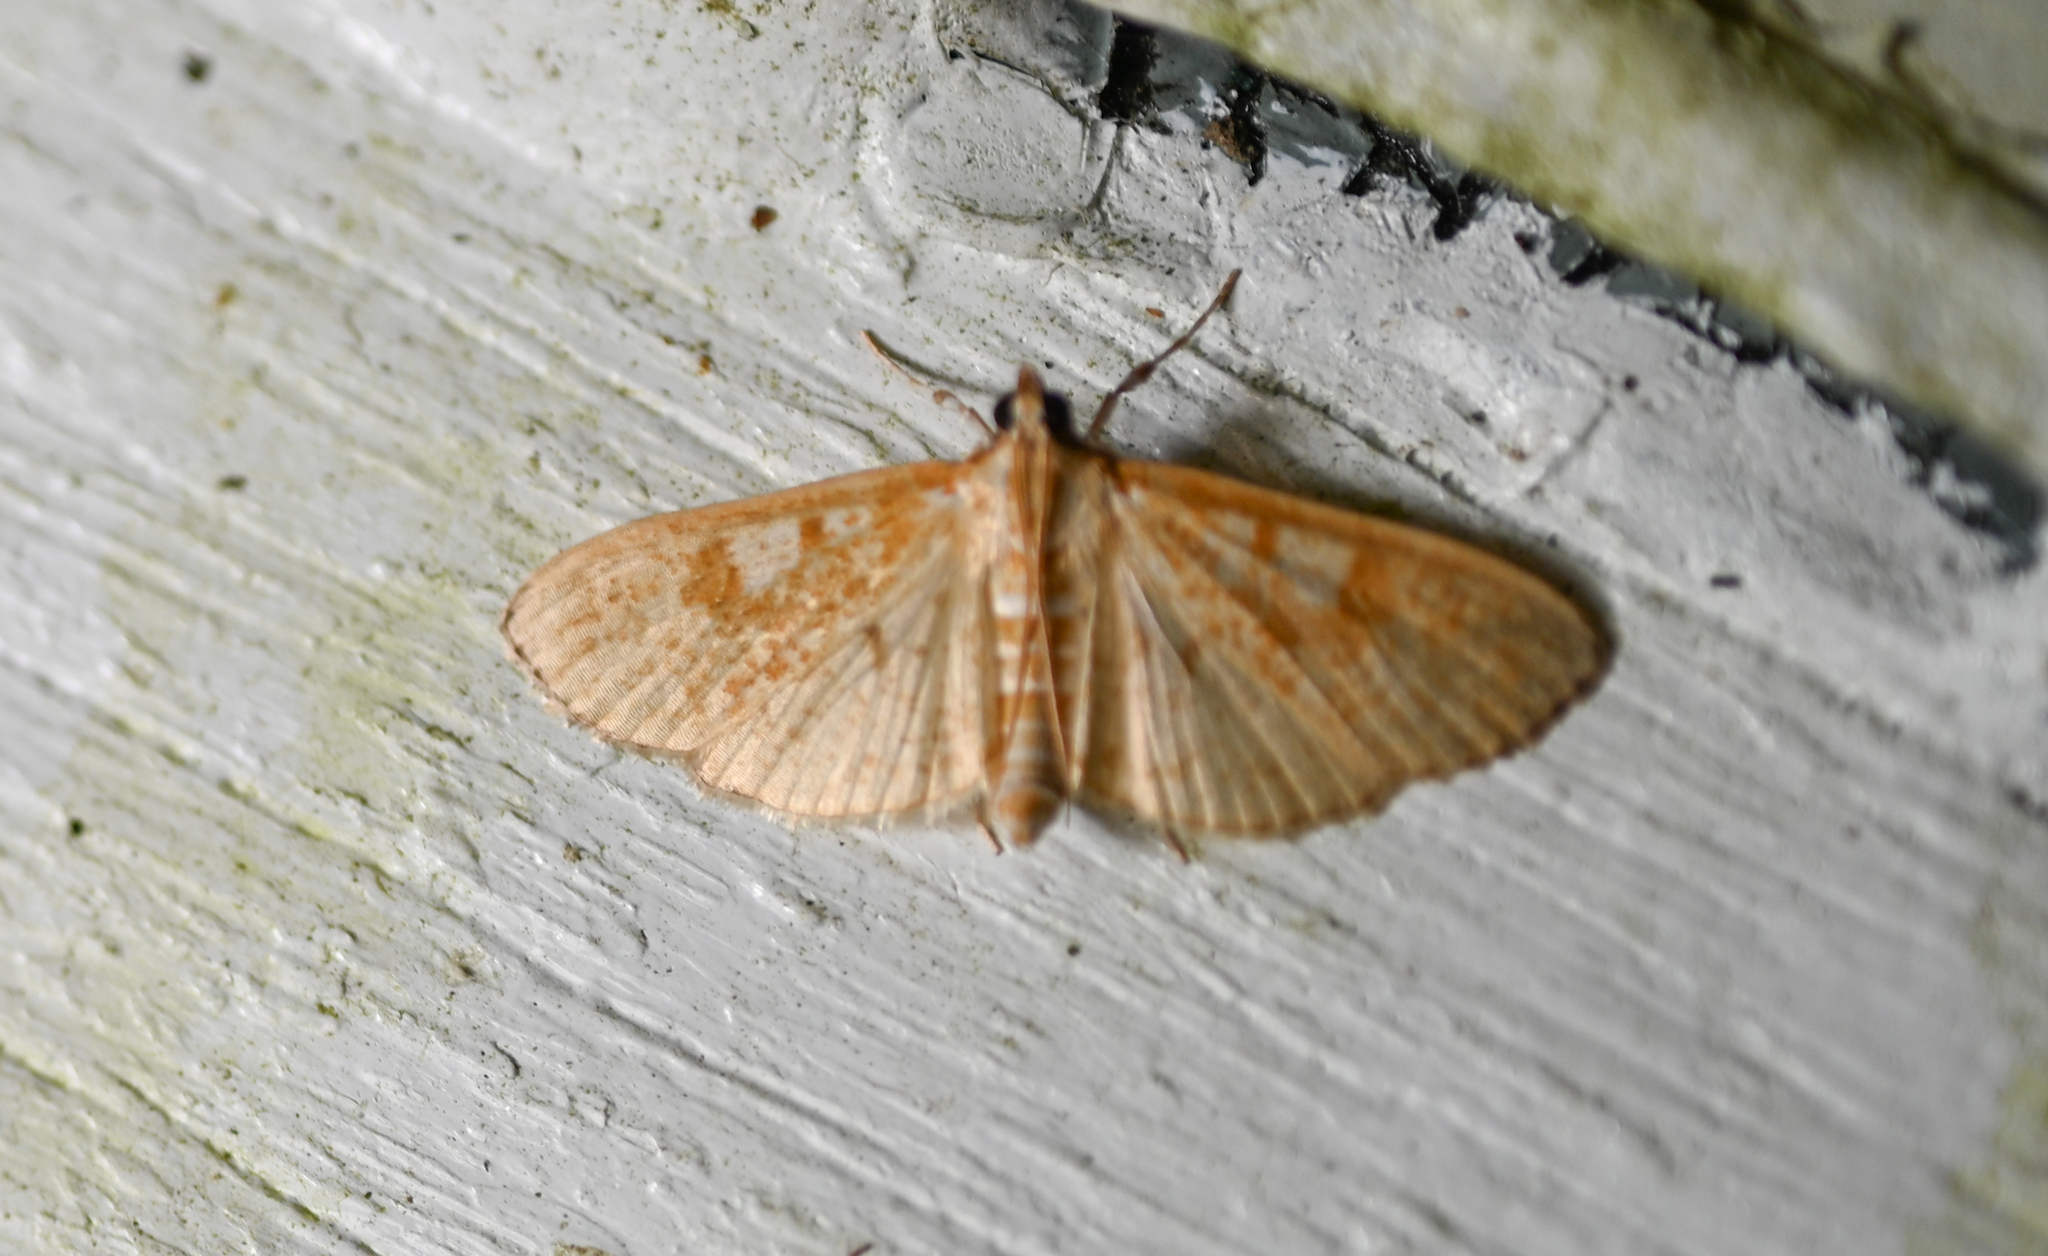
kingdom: Animalia
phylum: Arthropoda
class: Insecta
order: Lepidoptera
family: Crambidae
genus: Palpita
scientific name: Palpita freemanalis
